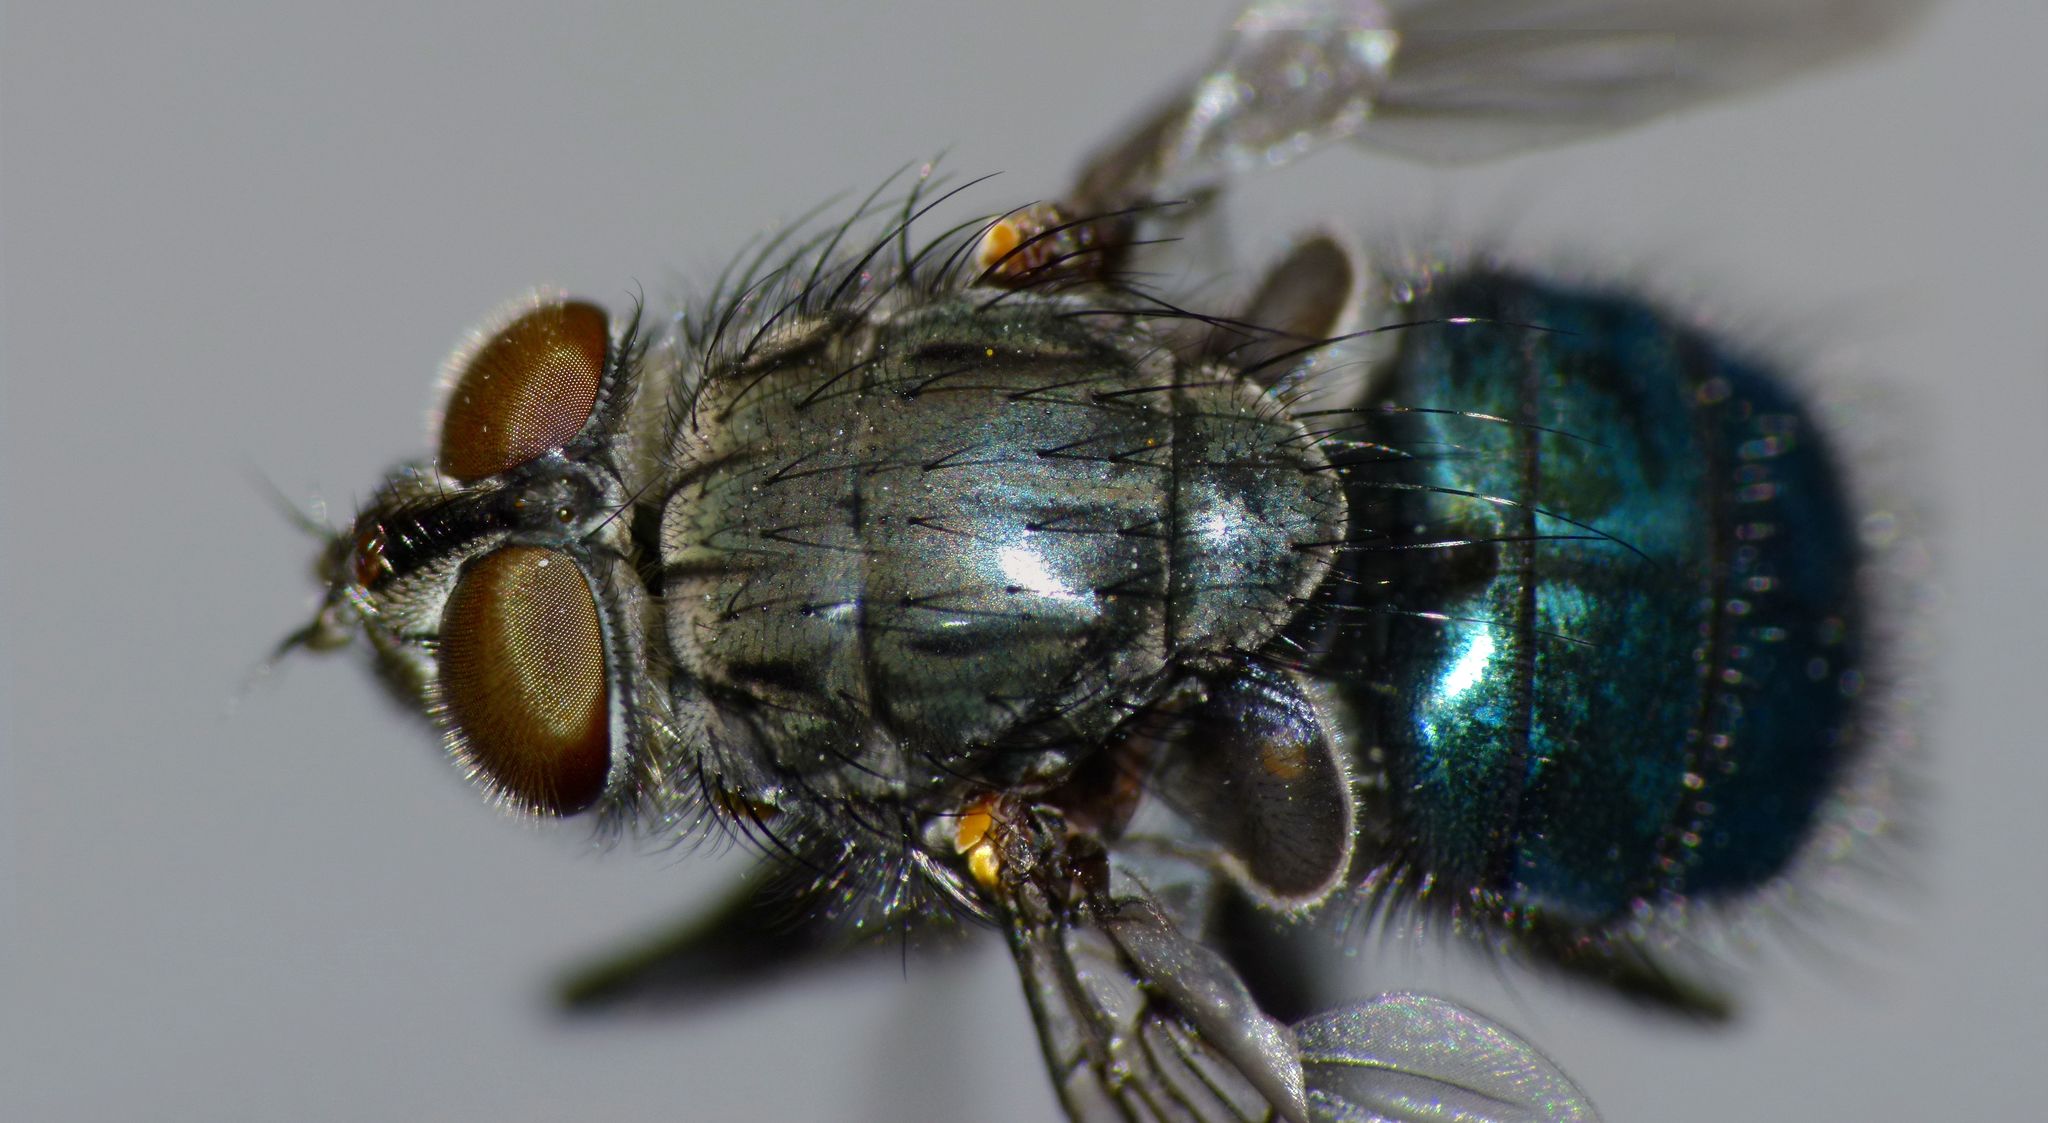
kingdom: Animalia
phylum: Arthropoda
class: Insecta
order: Diptera
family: Calliphoridae
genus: Ptilonesia
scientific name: Ptilonesia auronotata
